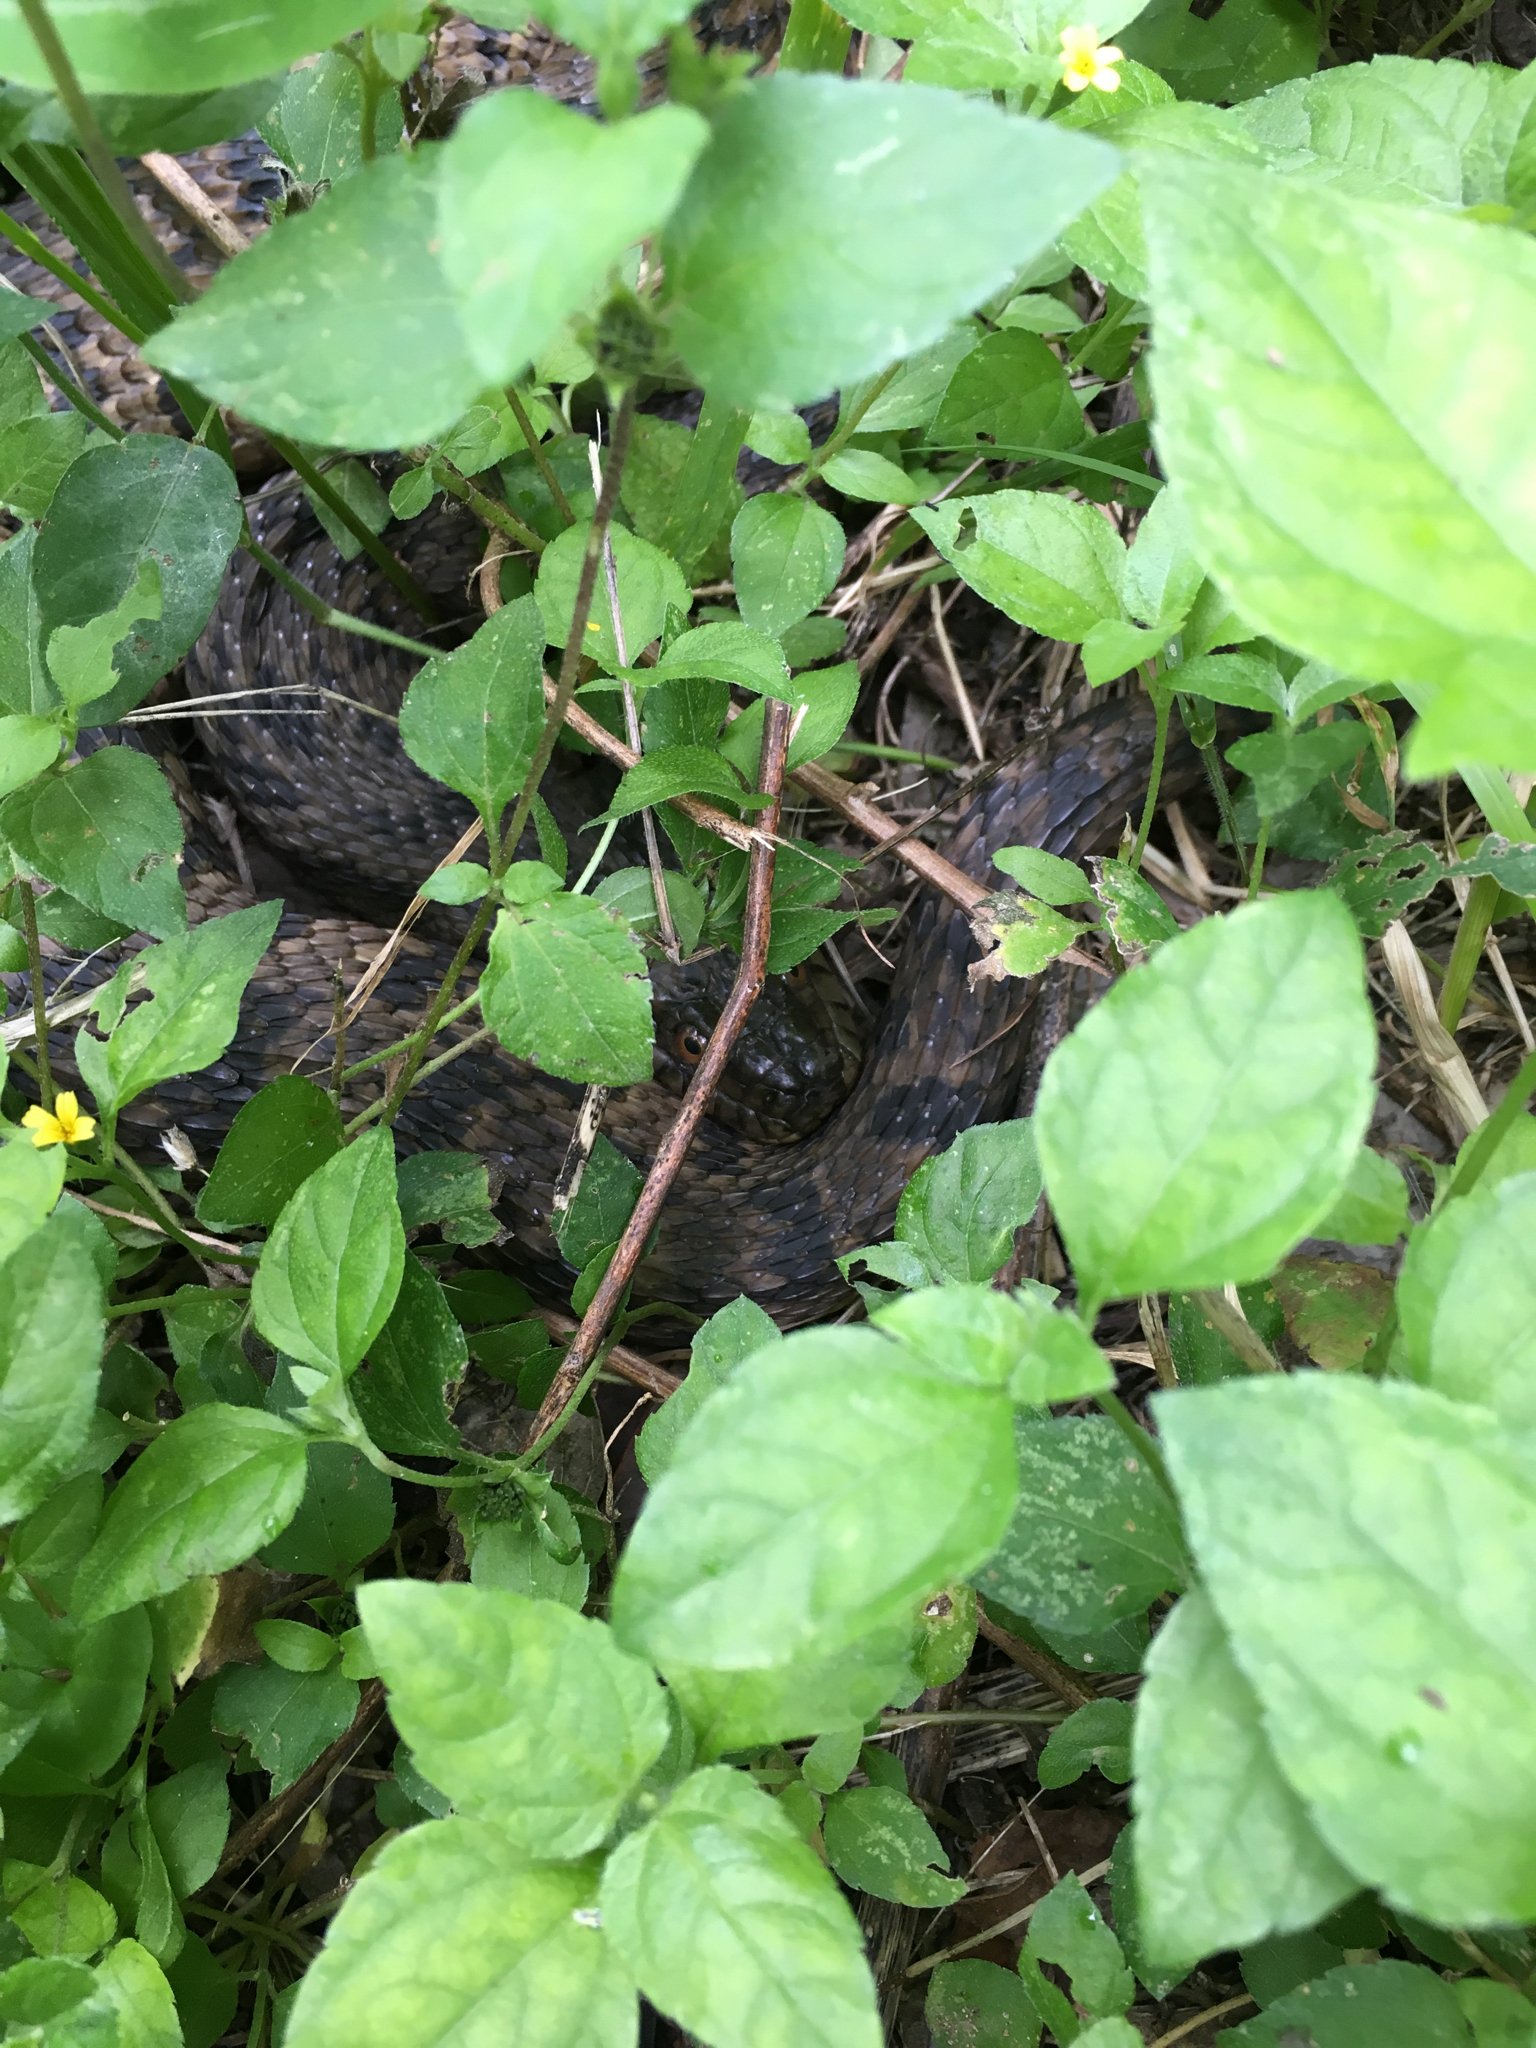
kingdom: Animalia
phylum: Chordata
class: Squamata
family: Colubridae
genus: Nerodia
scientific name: Nerodia rhombifer
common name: Diamondback water snake
